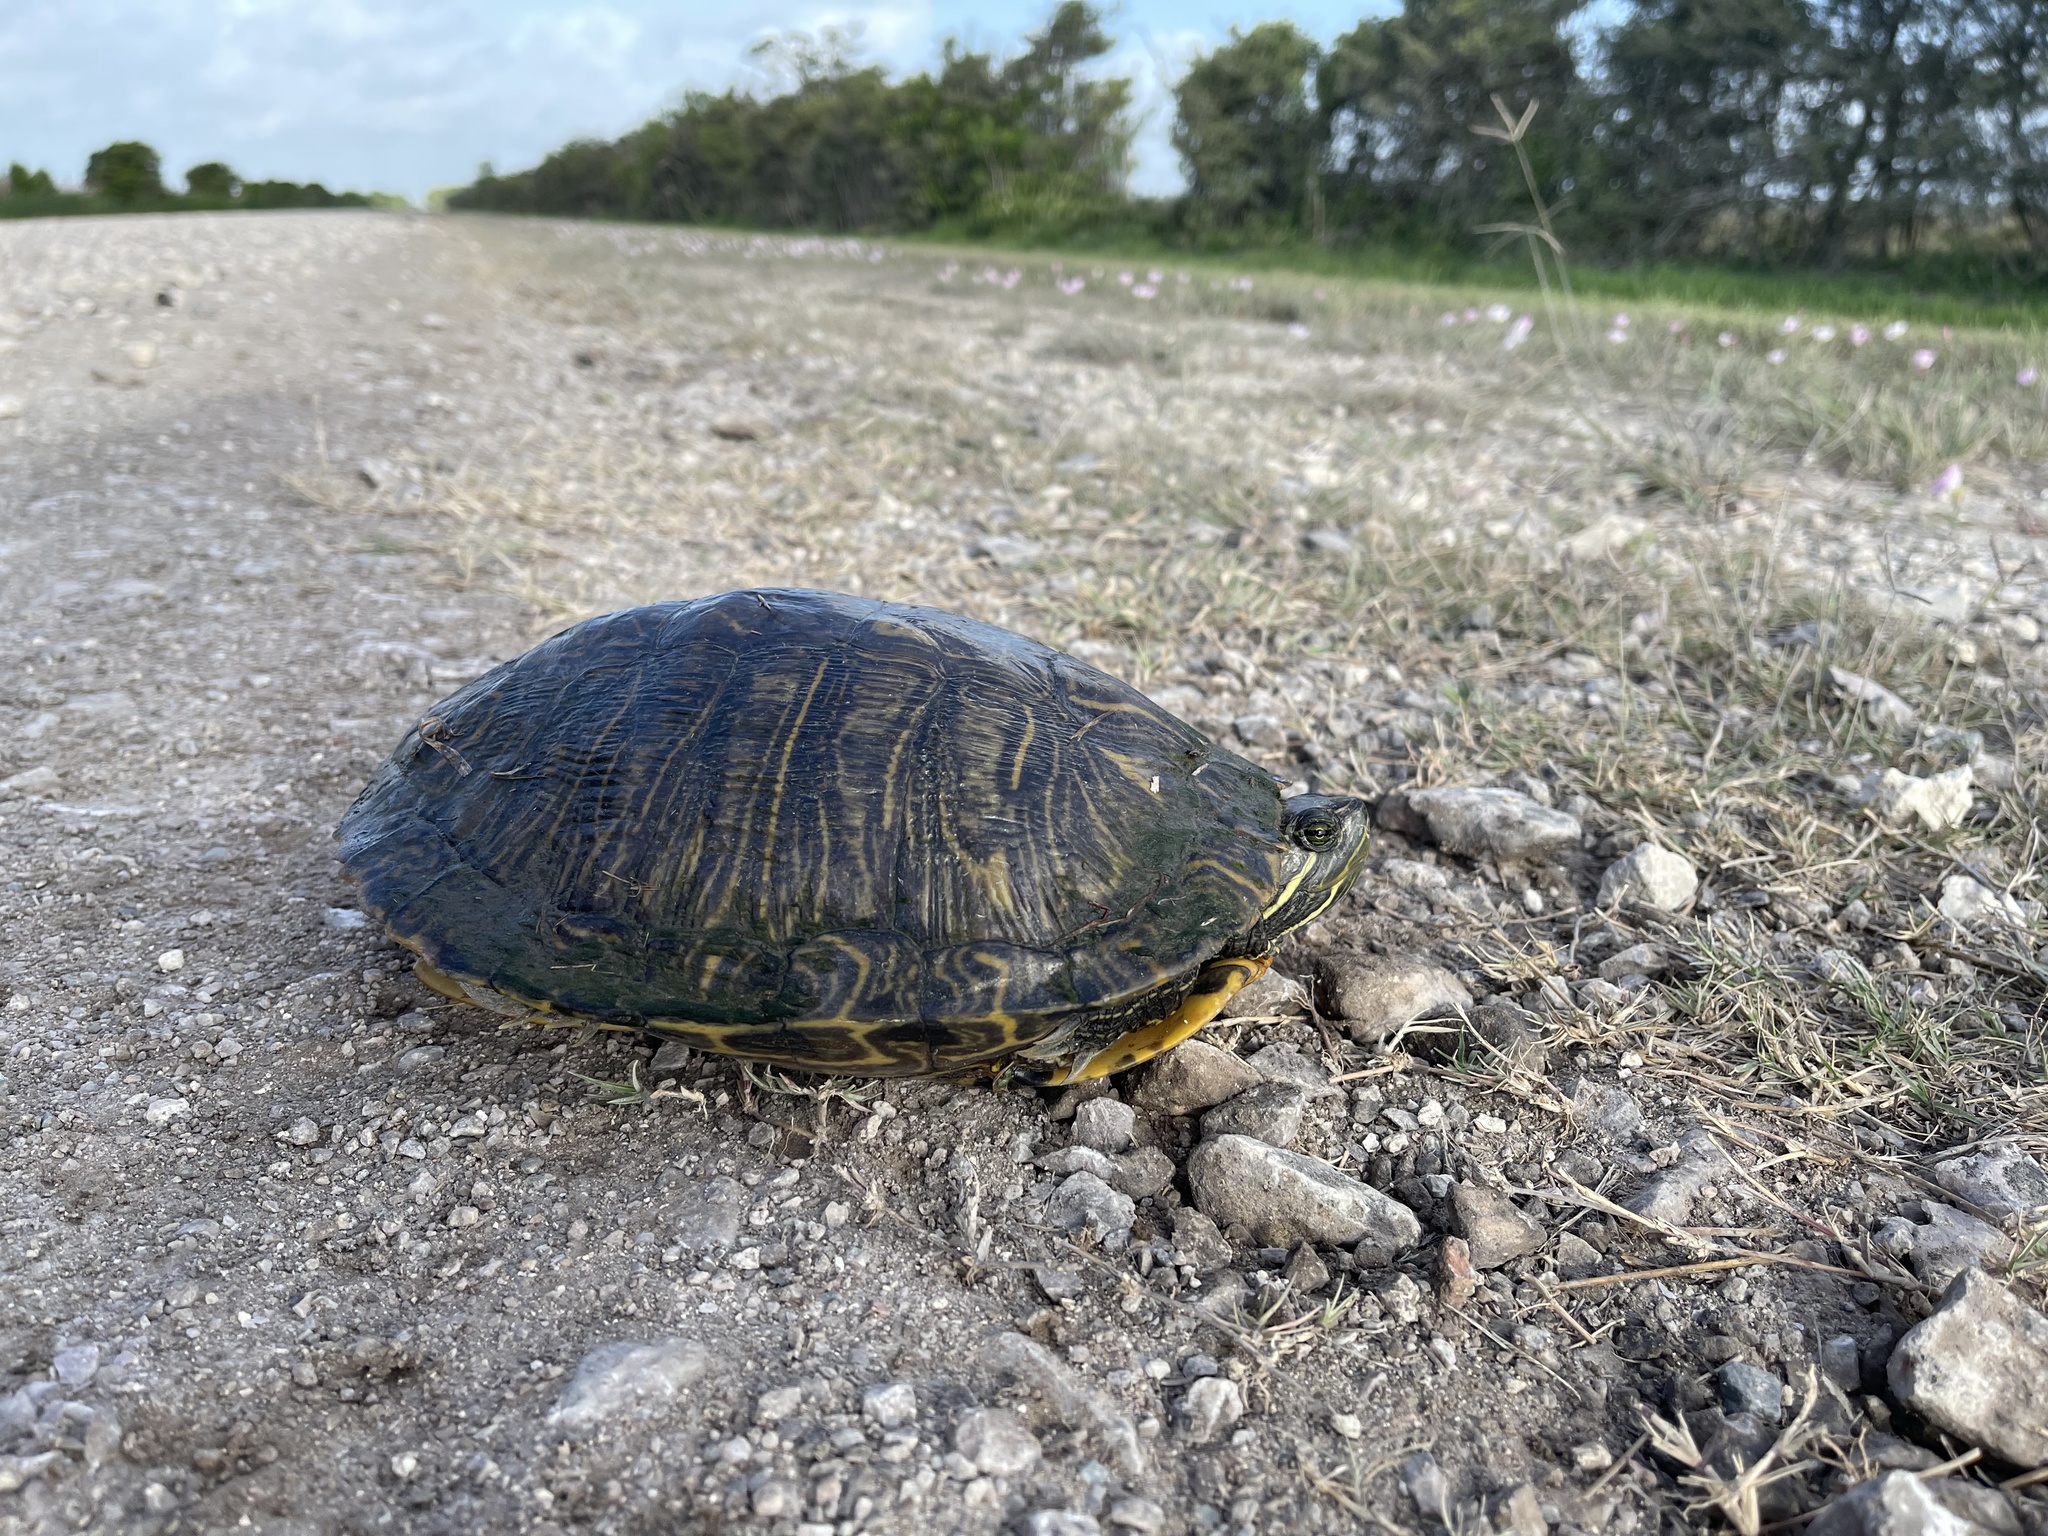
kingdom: Animalia
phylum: Chordata
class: Testudines
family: Emydidae
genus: Trachemys
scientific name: Trachemys scripta
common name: Slider
